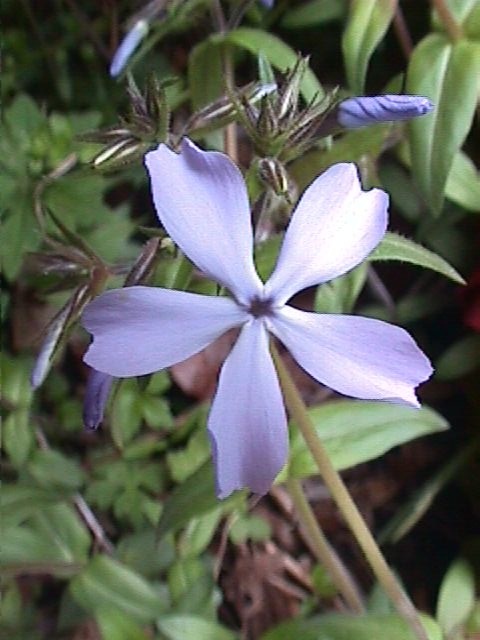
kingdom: Plantae
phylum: Tracheophyta
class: Magnoliopsida
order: Ericales
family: Polemoniaceae
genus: Phlox
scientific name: Phlox divaricata
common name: Blue phlox
